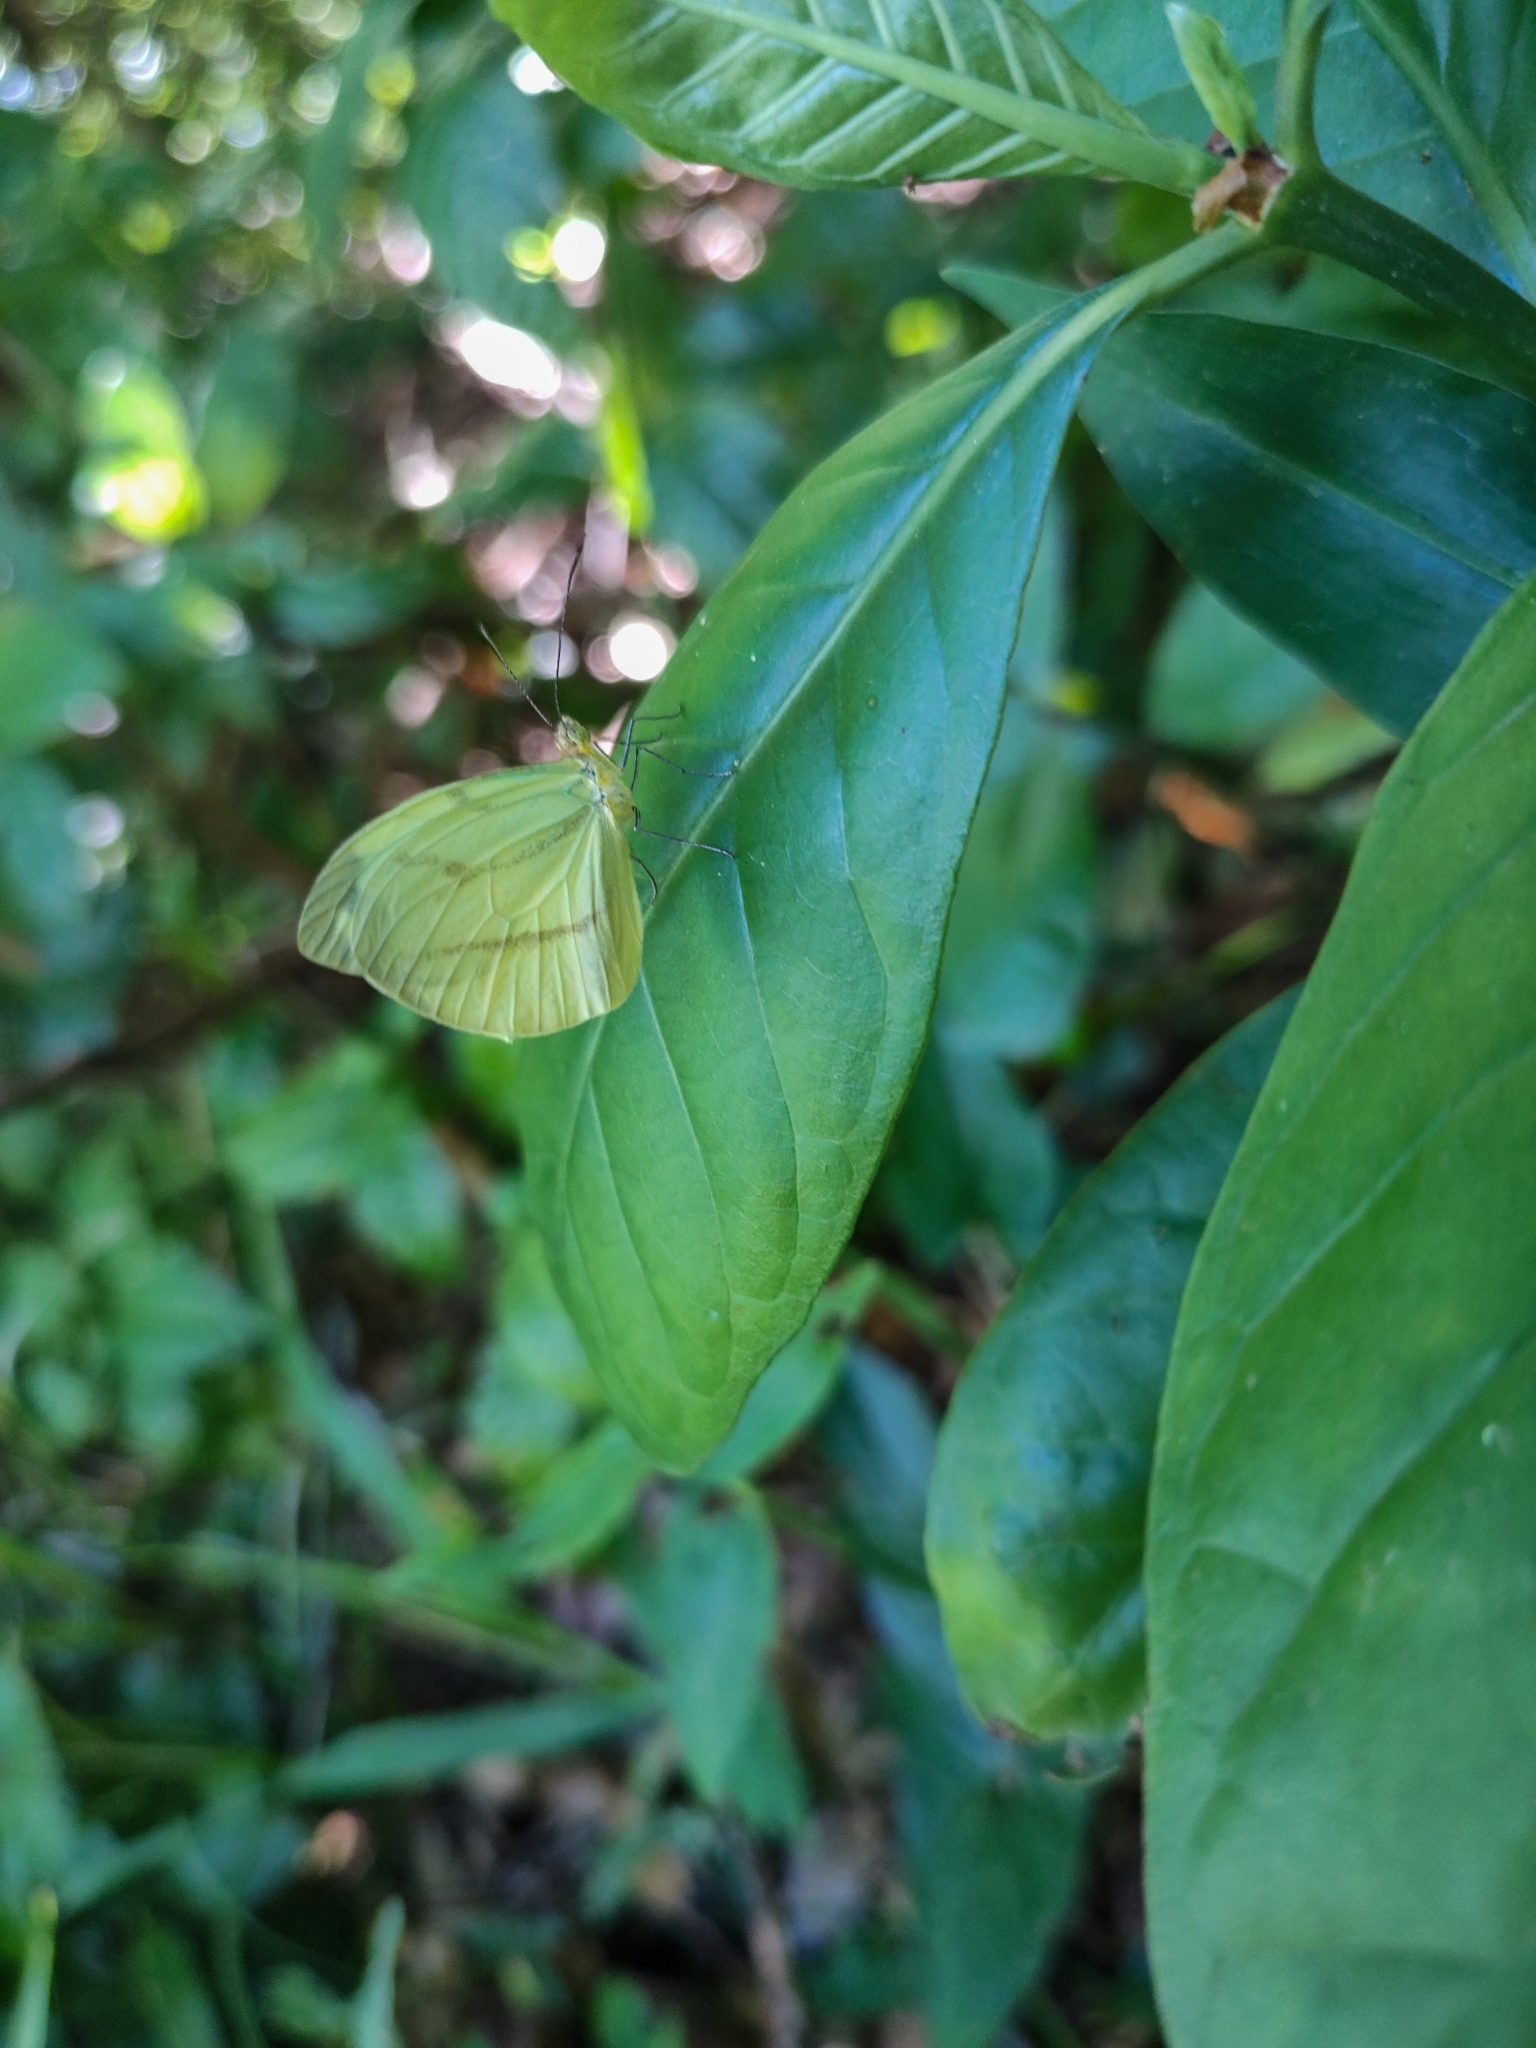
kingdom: Animalia
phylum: Arthropoda
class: Insecta
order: Lepidoptera
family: Pieridae
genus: Enantia
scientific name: Enantia lina
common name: White mimic-white
